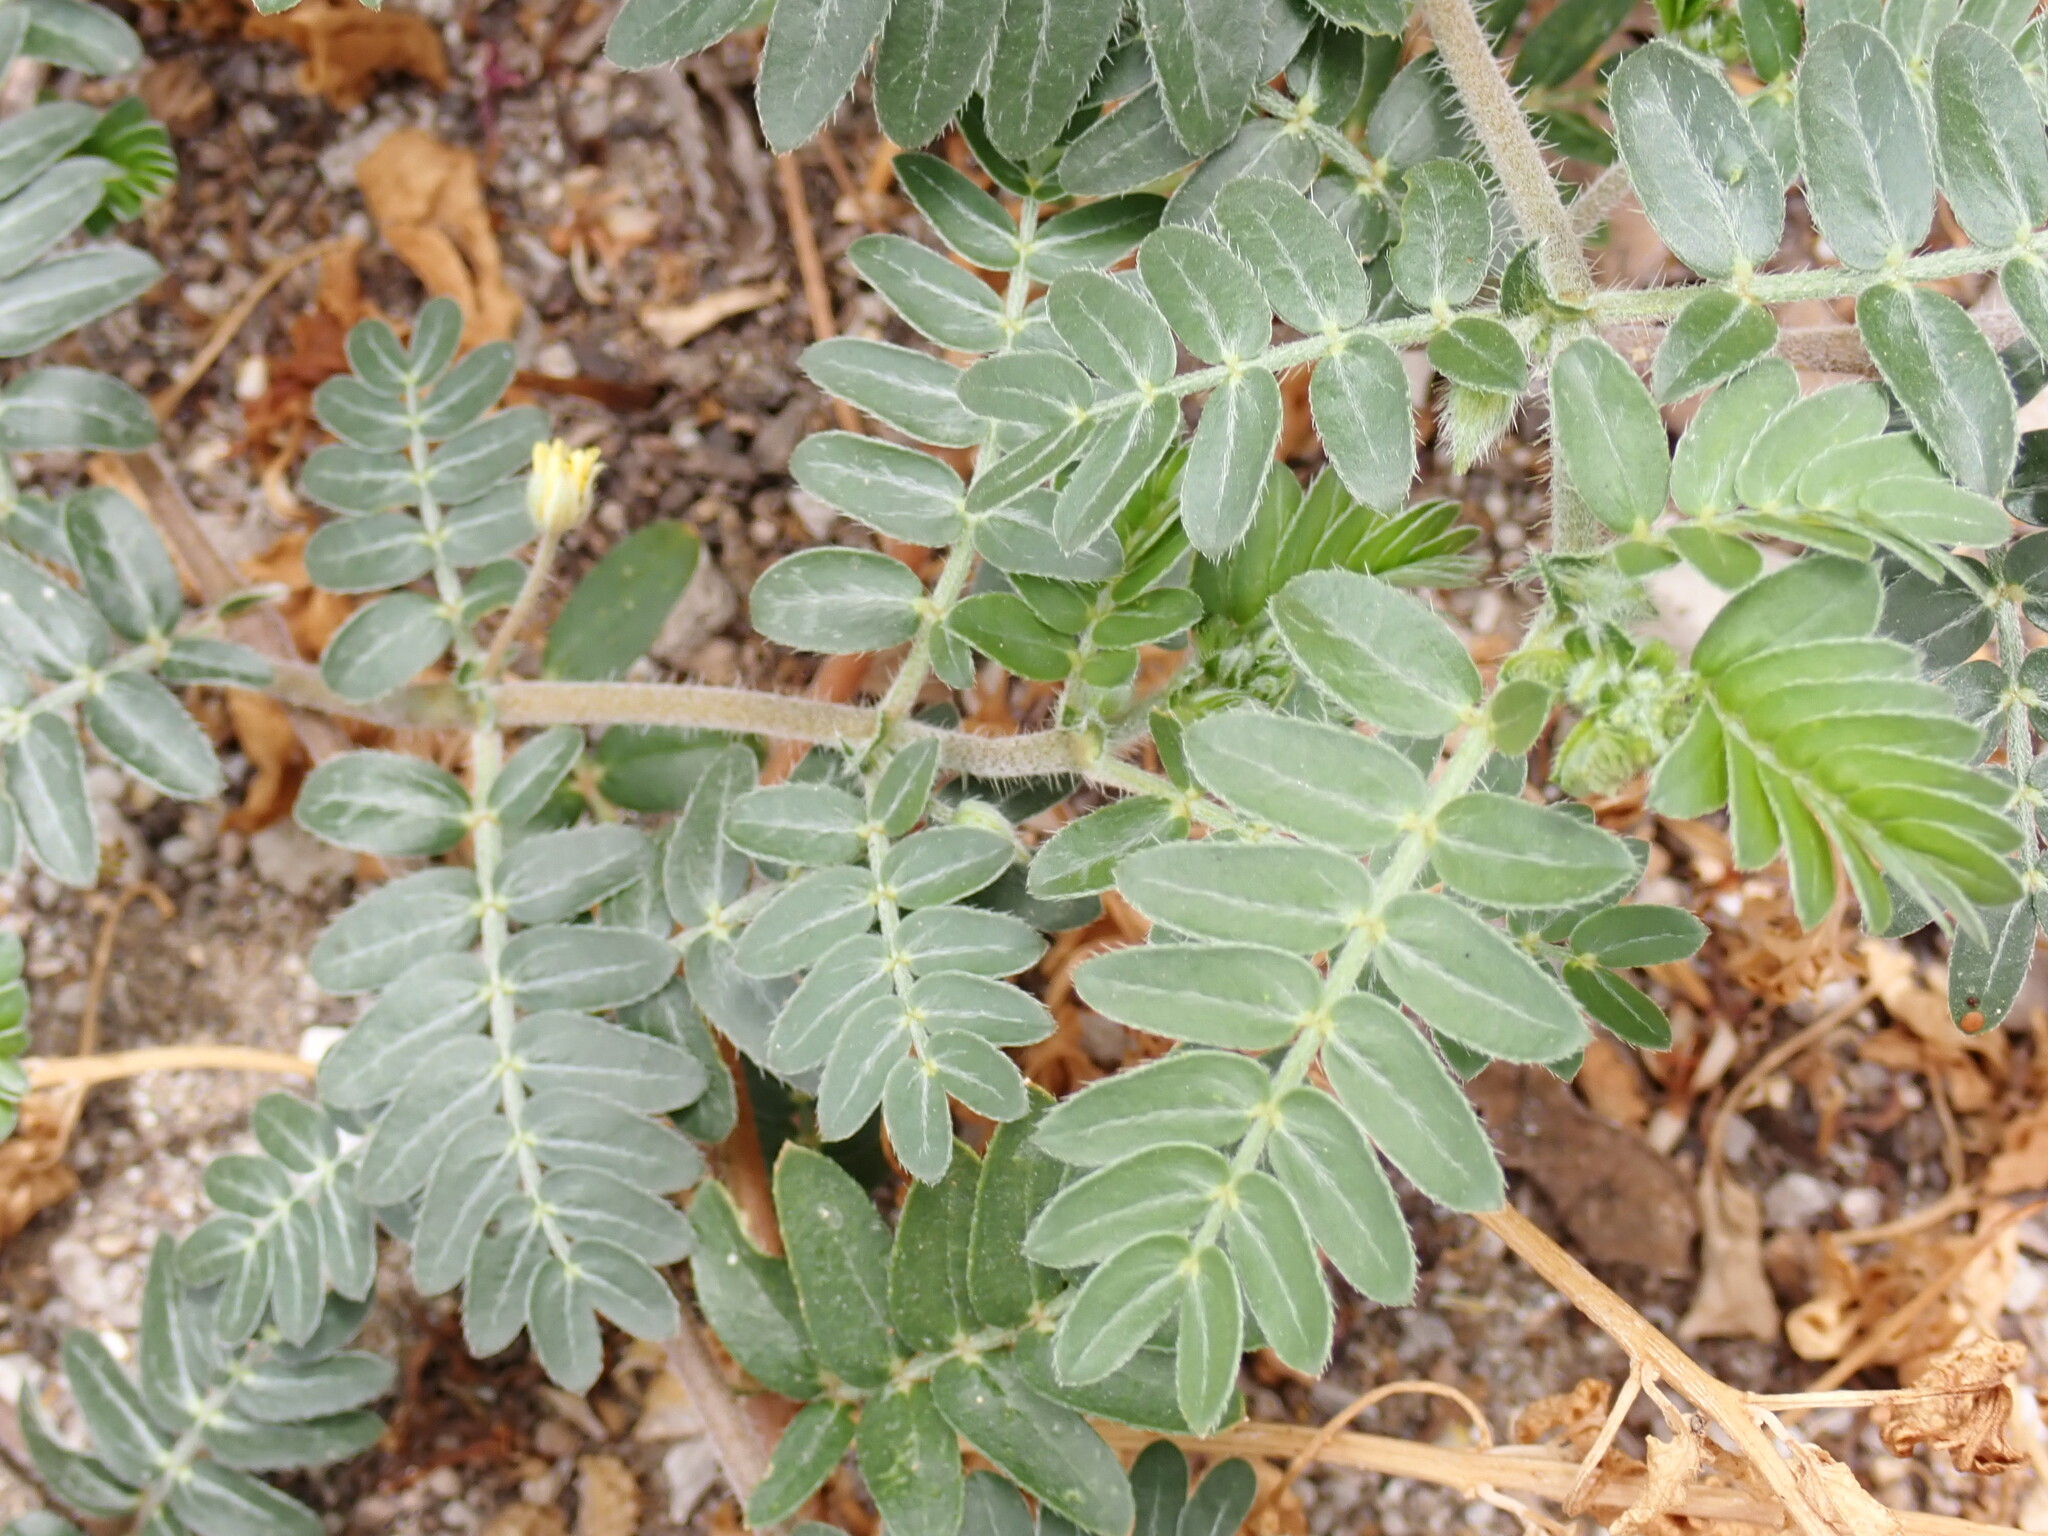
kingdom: Plantae
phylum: Tracheophyta
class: Magnoliopsida
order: Zygophyllales
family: Zygophyllaceae
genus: Tribulus
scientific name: Tribulus terrestris
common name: Puncturevine
